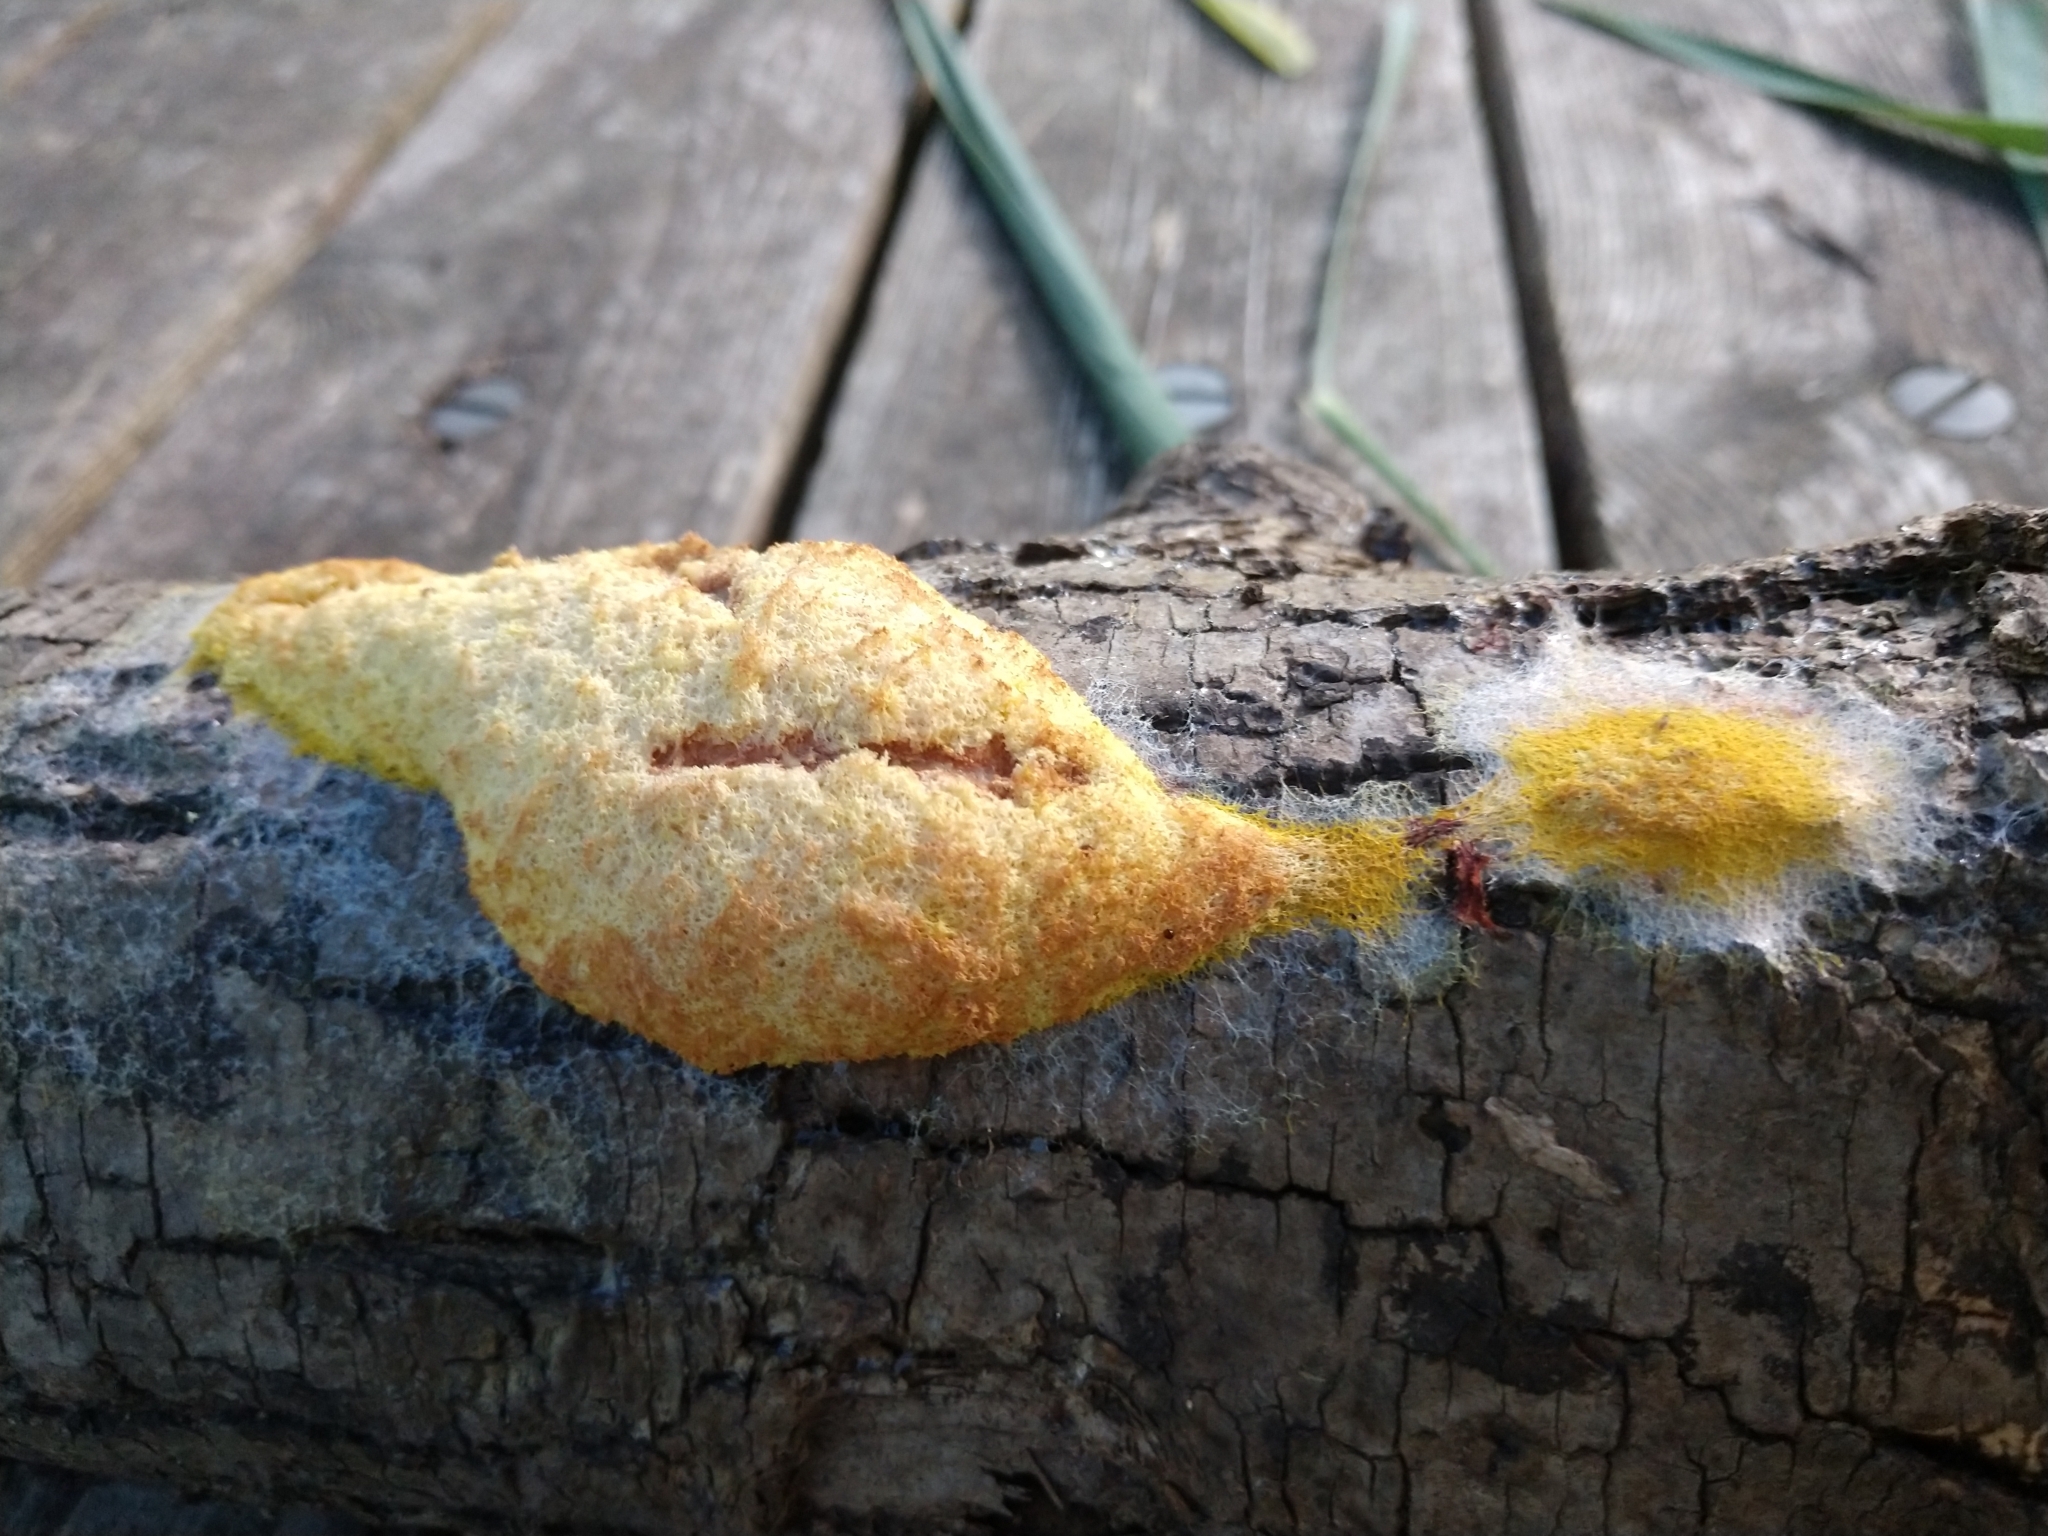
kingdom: Protozoa
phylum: Mycetozoa
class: Myxomycetes
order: Physarales
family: Physaraceae
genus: Fuligo
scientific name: Fuligo septica
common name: Dog vomit slime mold
